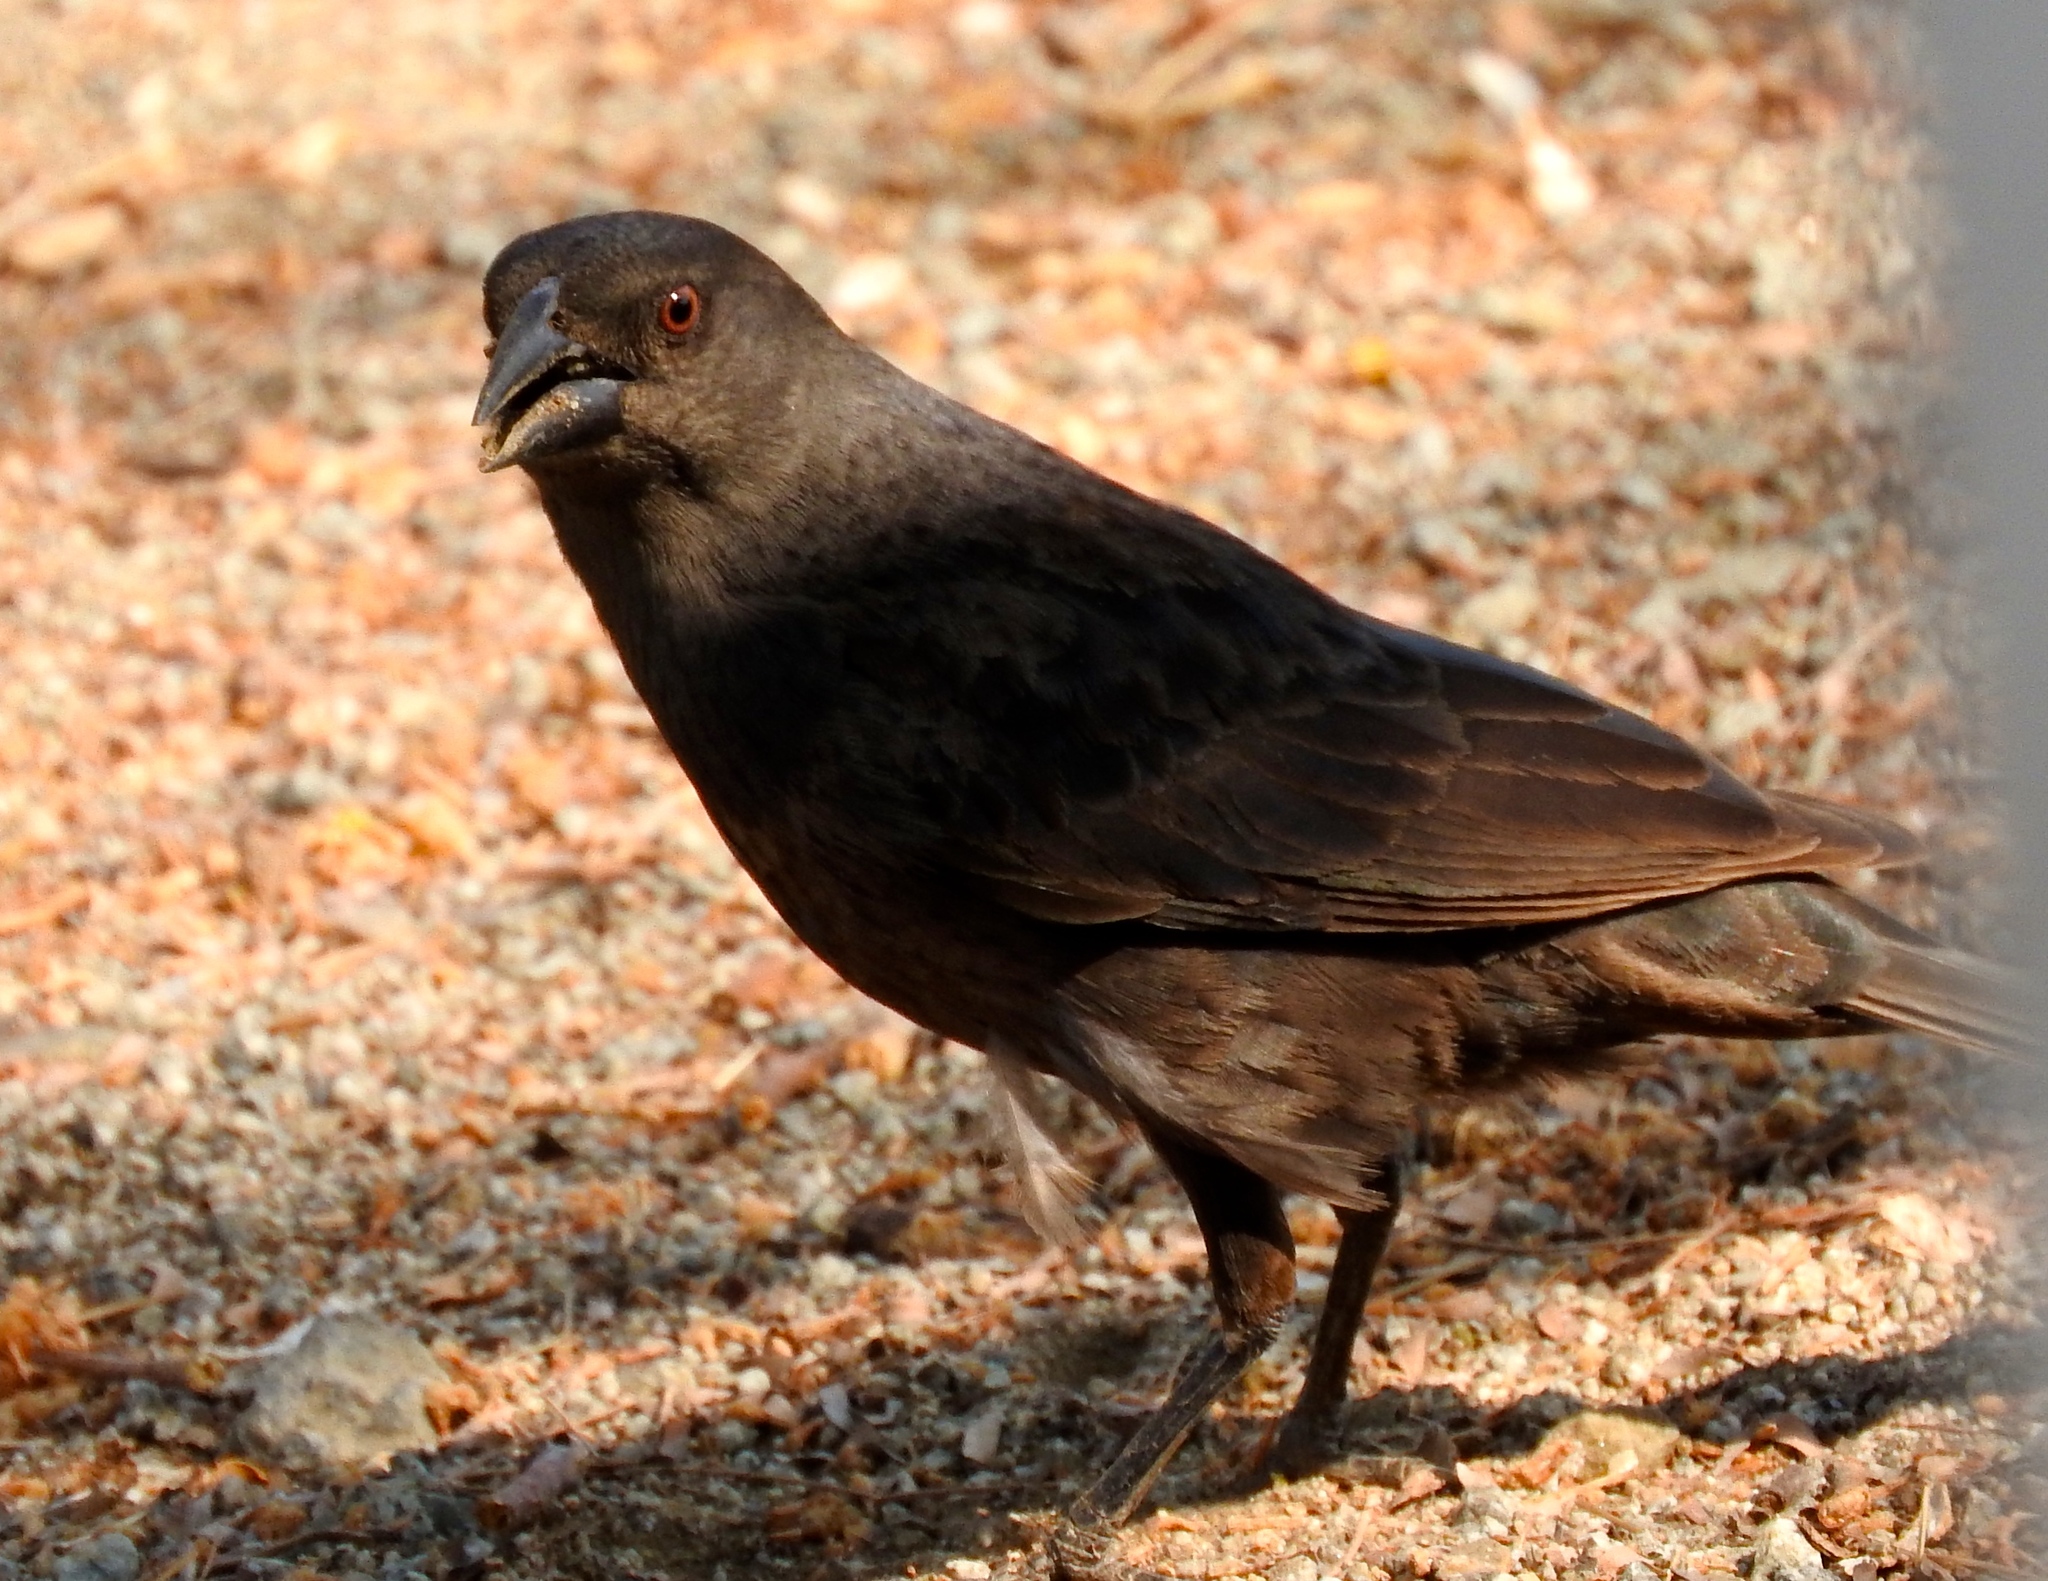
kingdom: Animalia
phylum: Chordata
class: Aves
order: Passeriformes
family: Icteridae
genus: Molothrus
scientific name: Molothrus aeneus
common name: Bronzed cowbird
